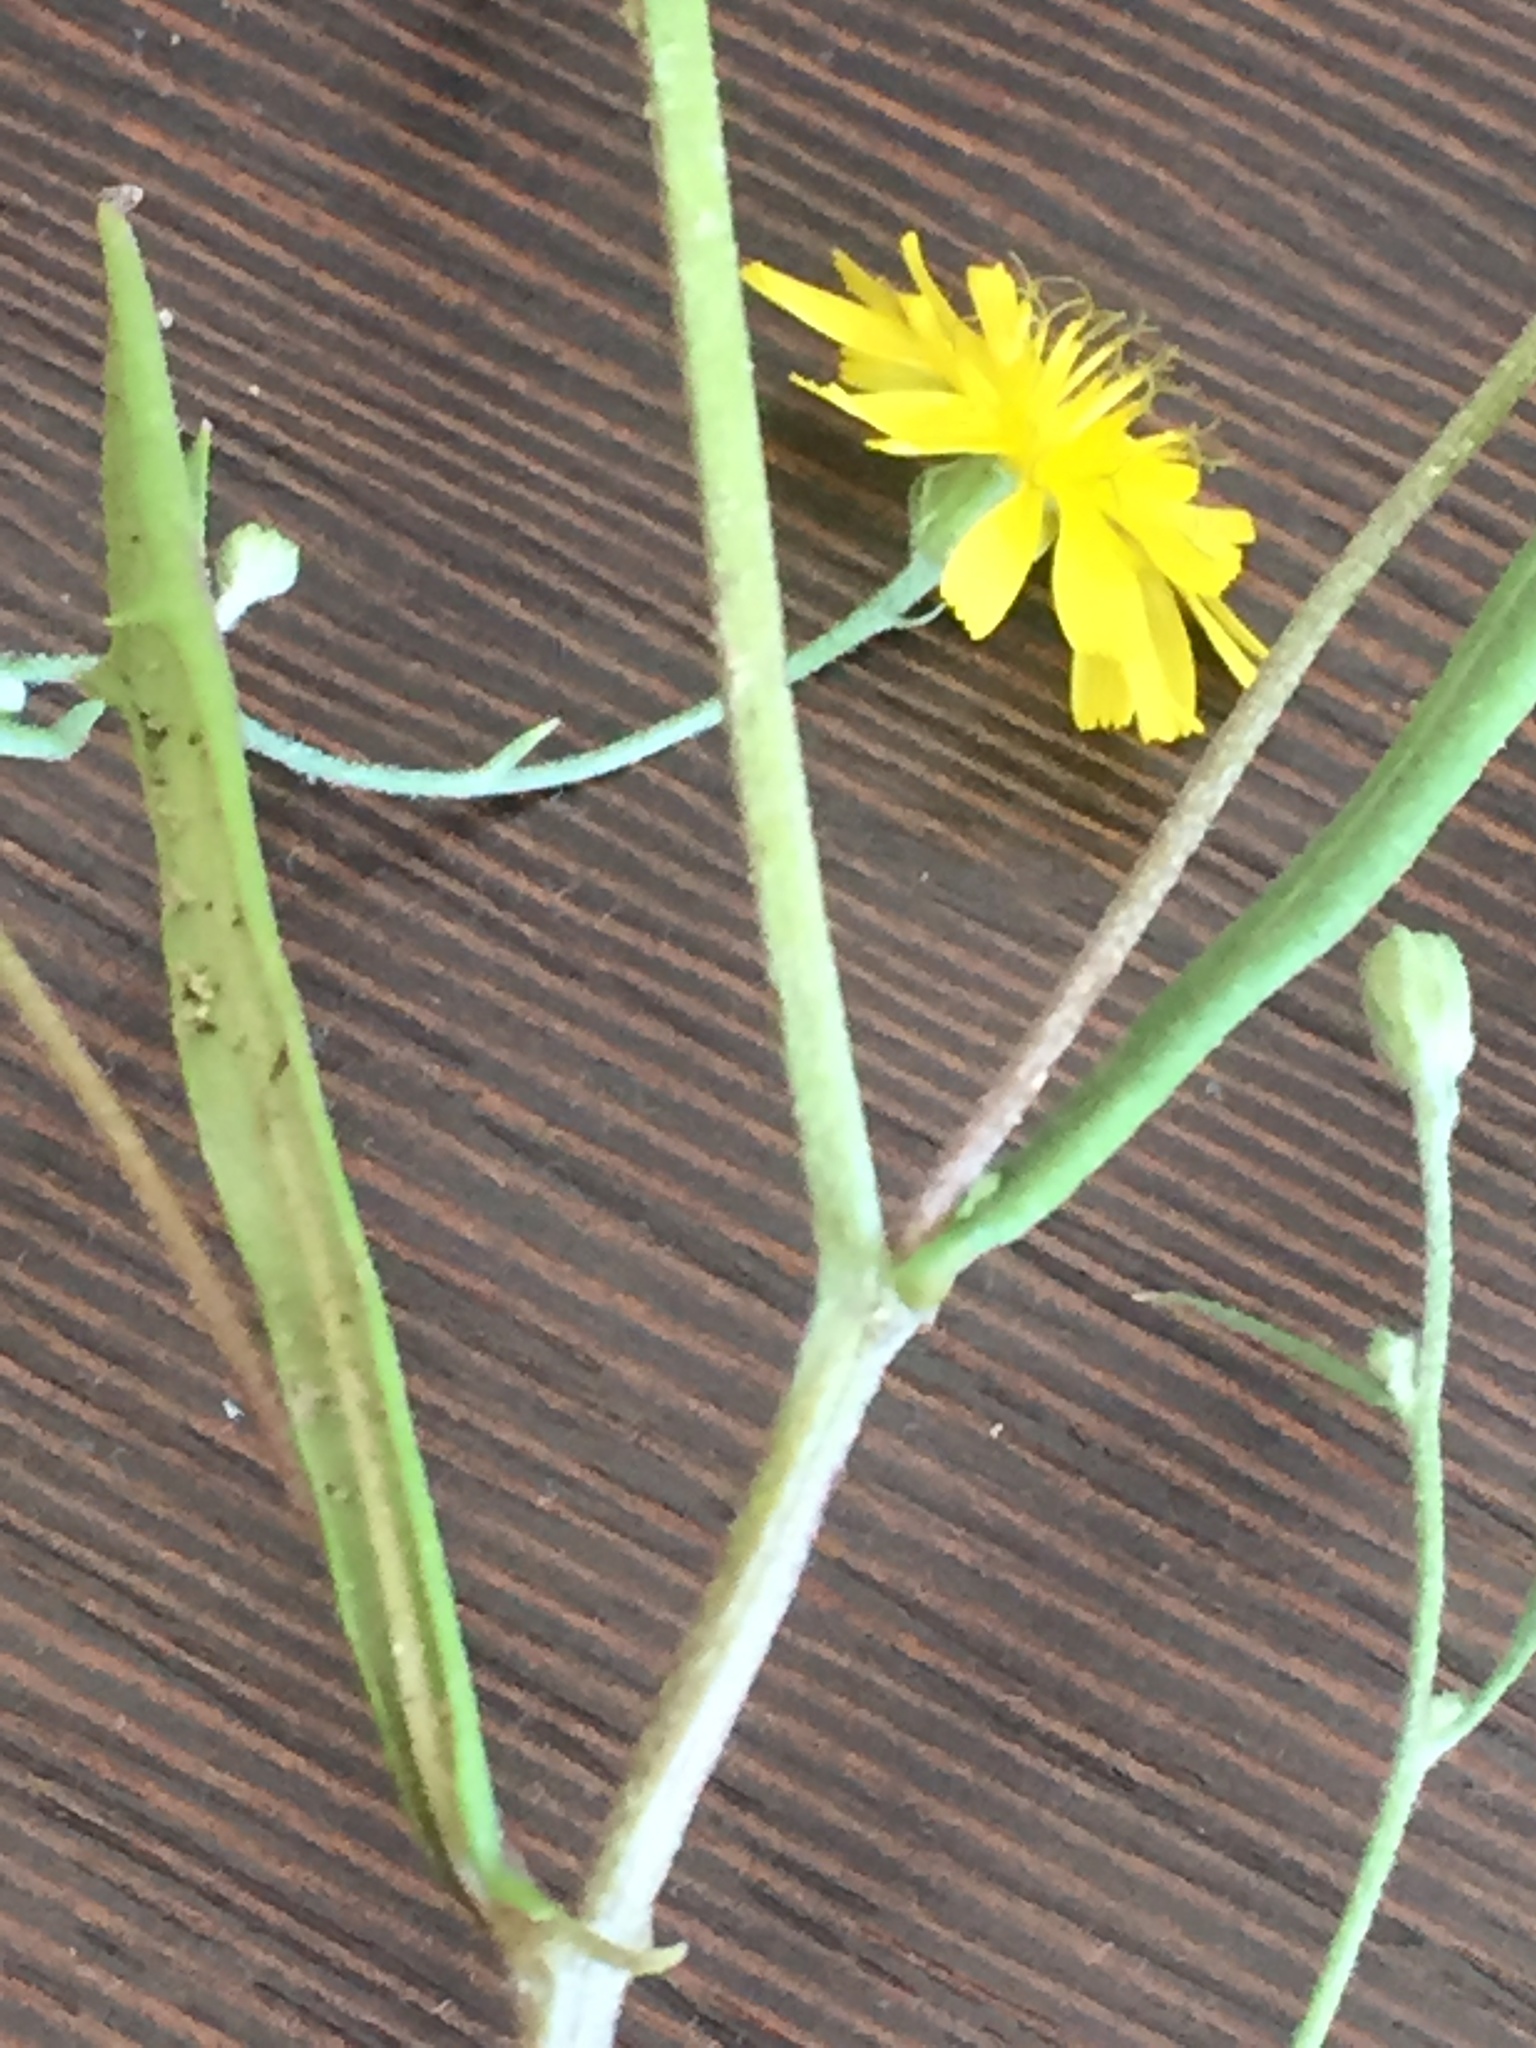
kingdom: Plantae
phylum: Tracheophyta
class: Magnoliopsida
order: Asterales
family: Asteraceae
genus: Crepis
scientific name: Crepis tectorum
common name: Narrow-leaved hawk's-beard
